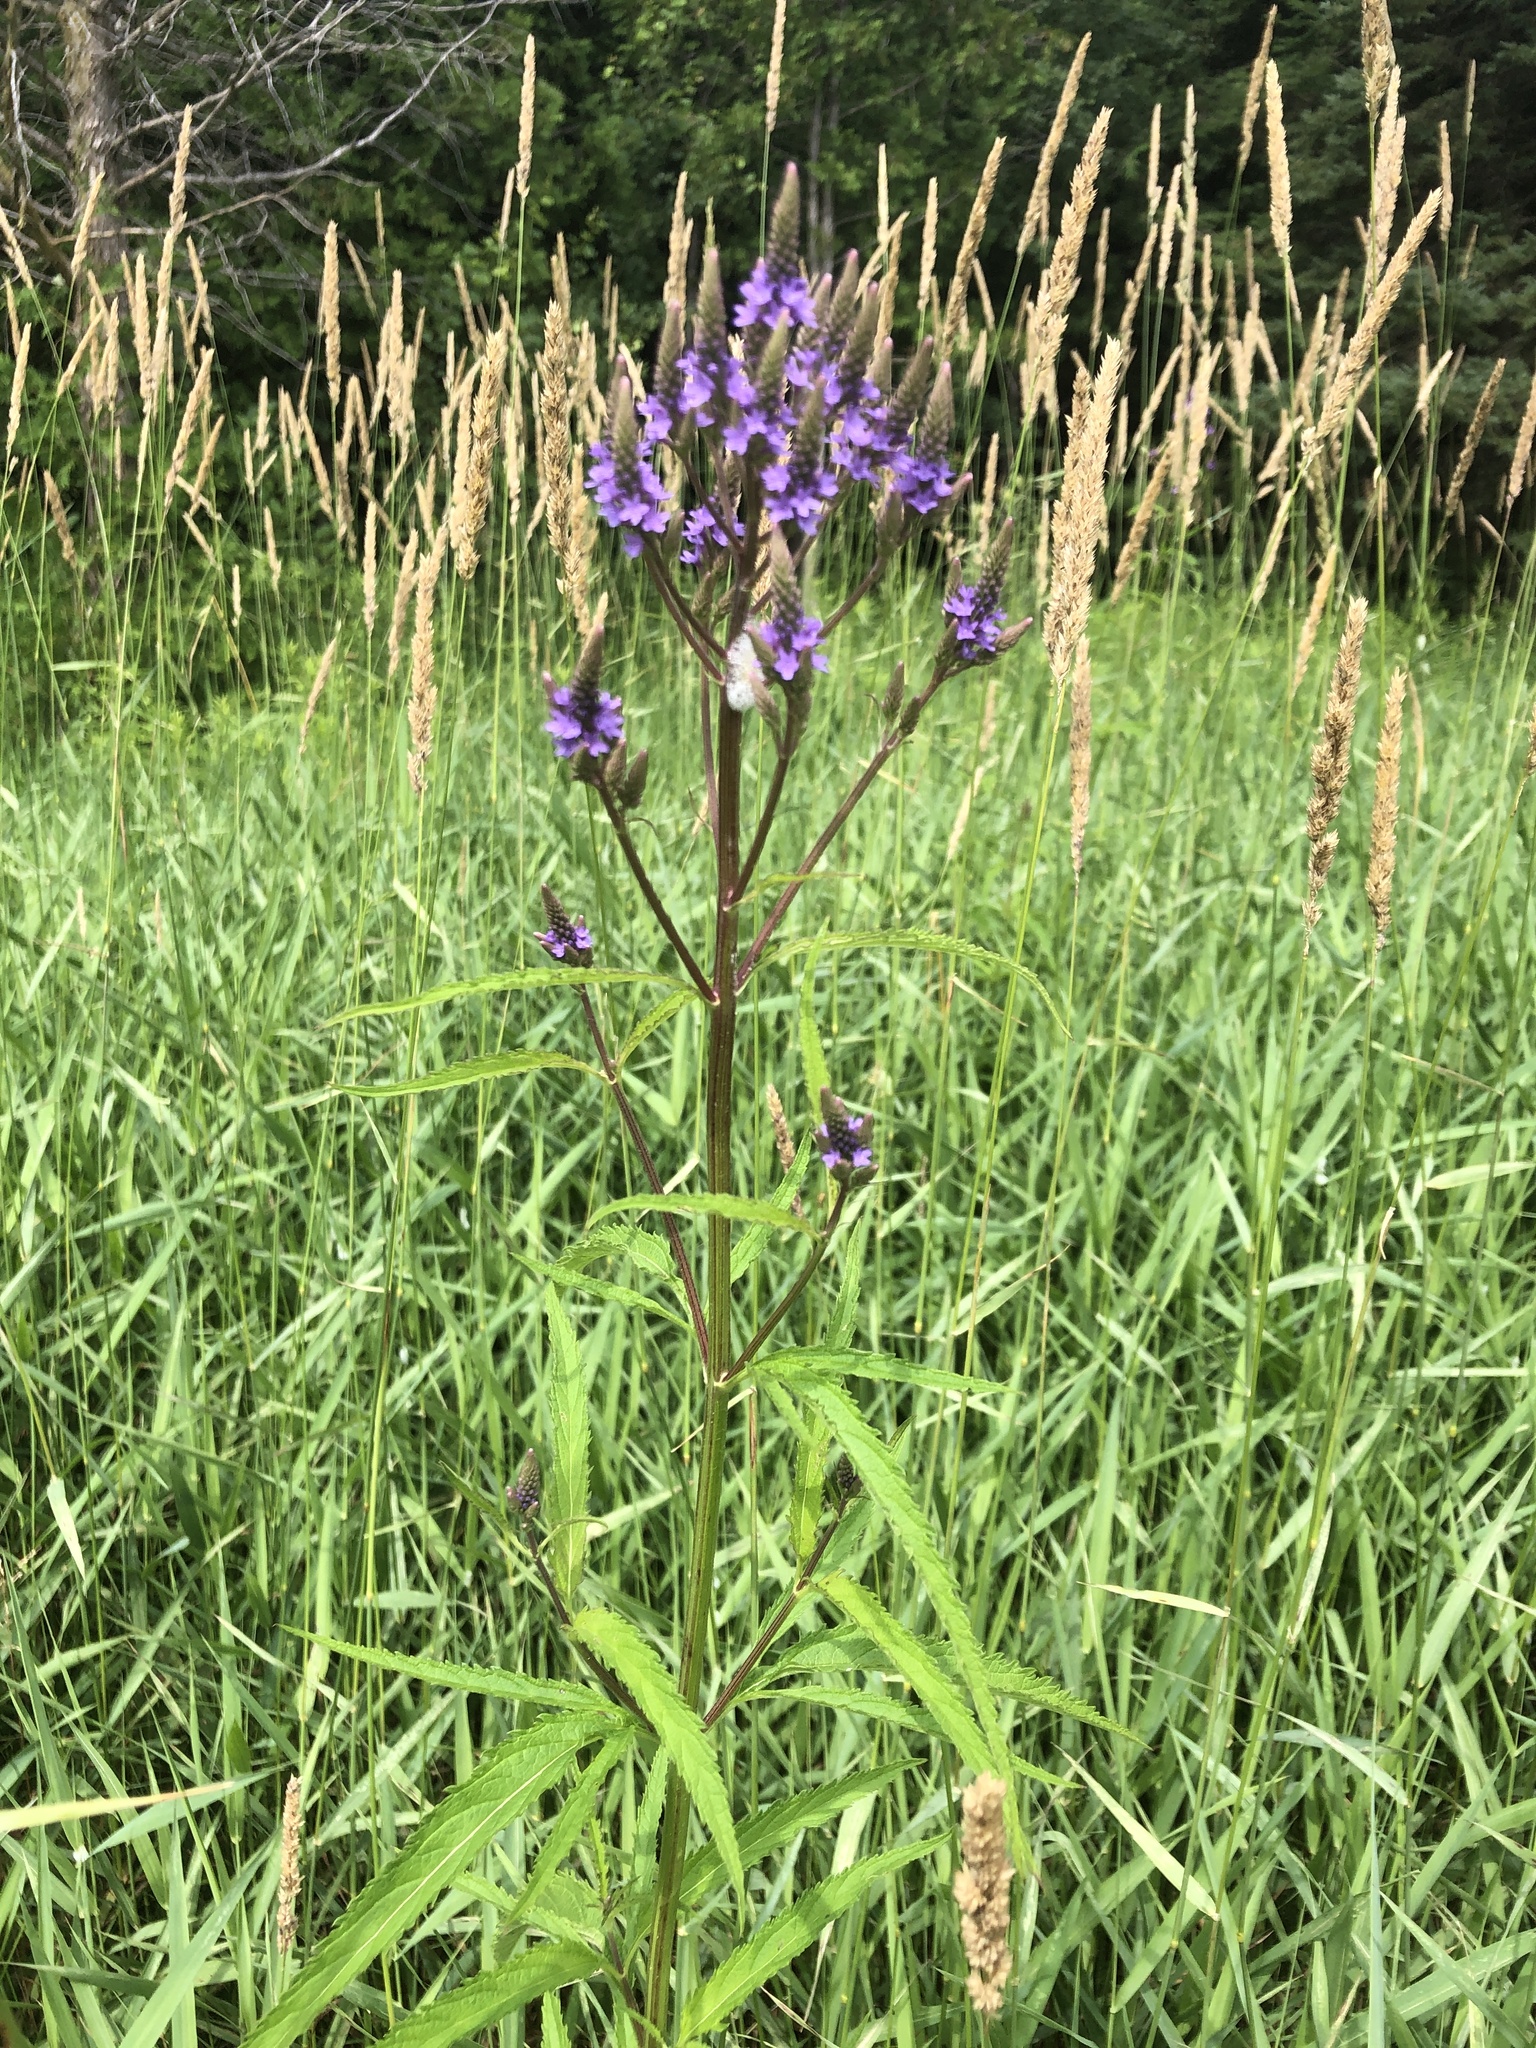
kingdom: Plantae
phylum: Tracheophyta
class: Magnoliopsida
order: Lamiales
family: Verbenaceae
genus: Verbena
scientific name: Verbena hastata
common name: American blue vervain
